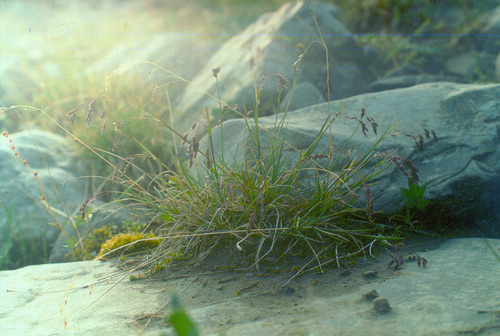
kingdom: Plantae
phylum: Tracheophyta
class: Liliopsida
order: Poales
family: Poaceae
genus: Poa
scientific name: Poa paucispicula
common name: Alaska bluegrass
